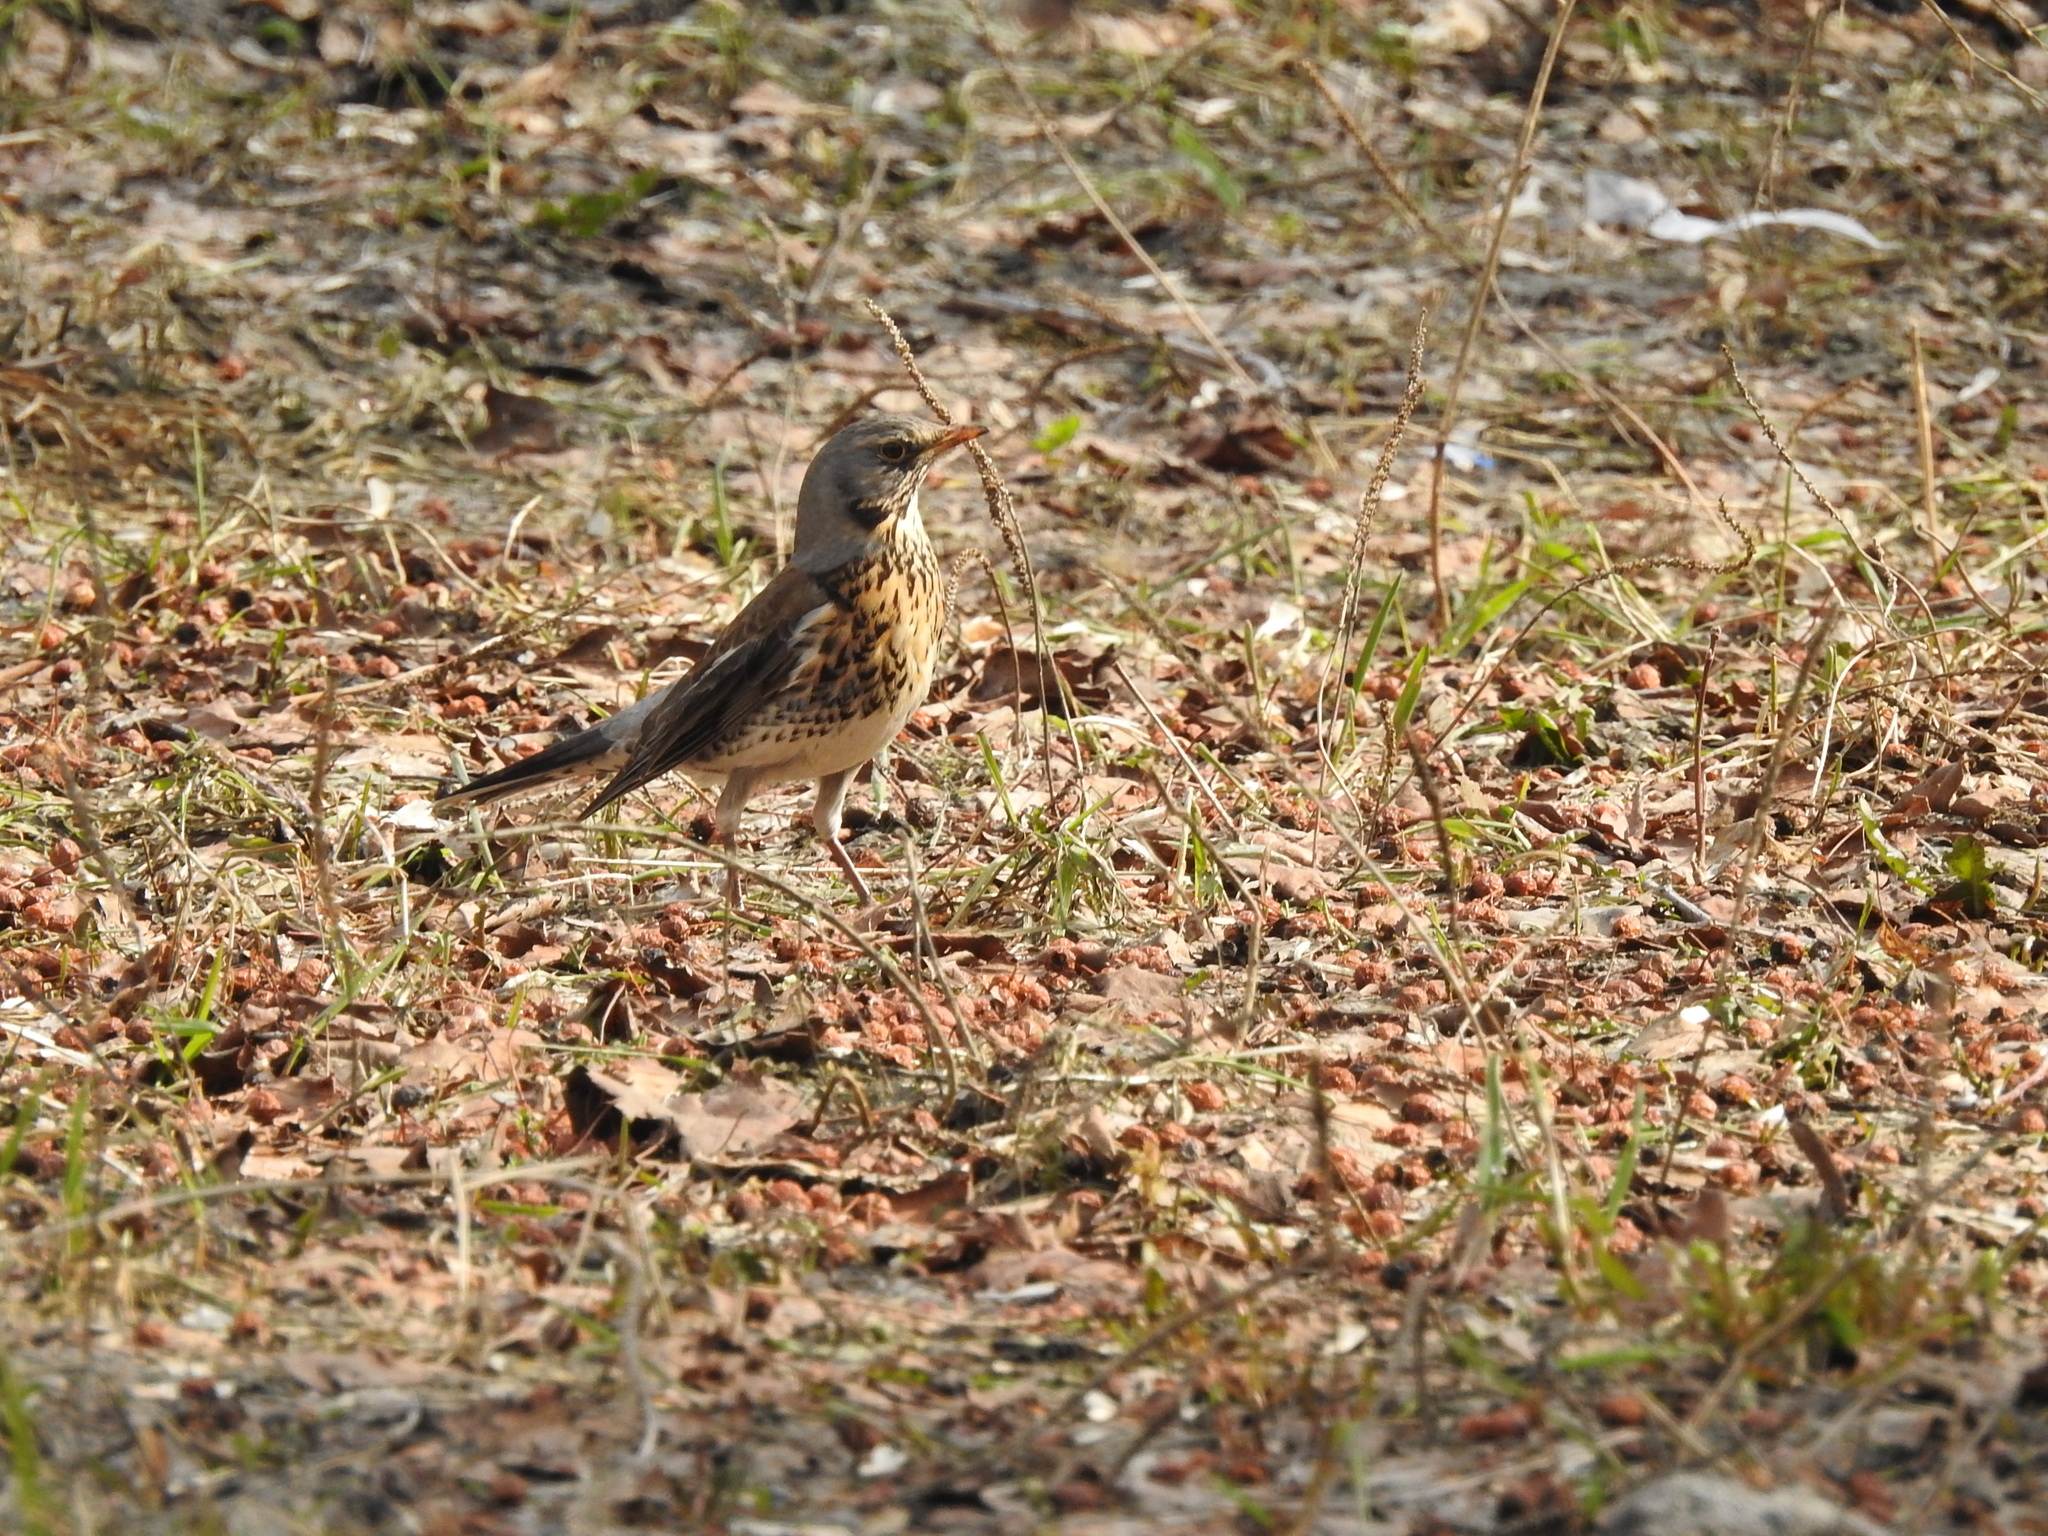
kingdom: Animalia
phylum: Chordata
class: Aves
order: Passeriformes
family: Turdidae
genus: Turdus
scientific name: Turdus pilaris
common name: Fieldfare
